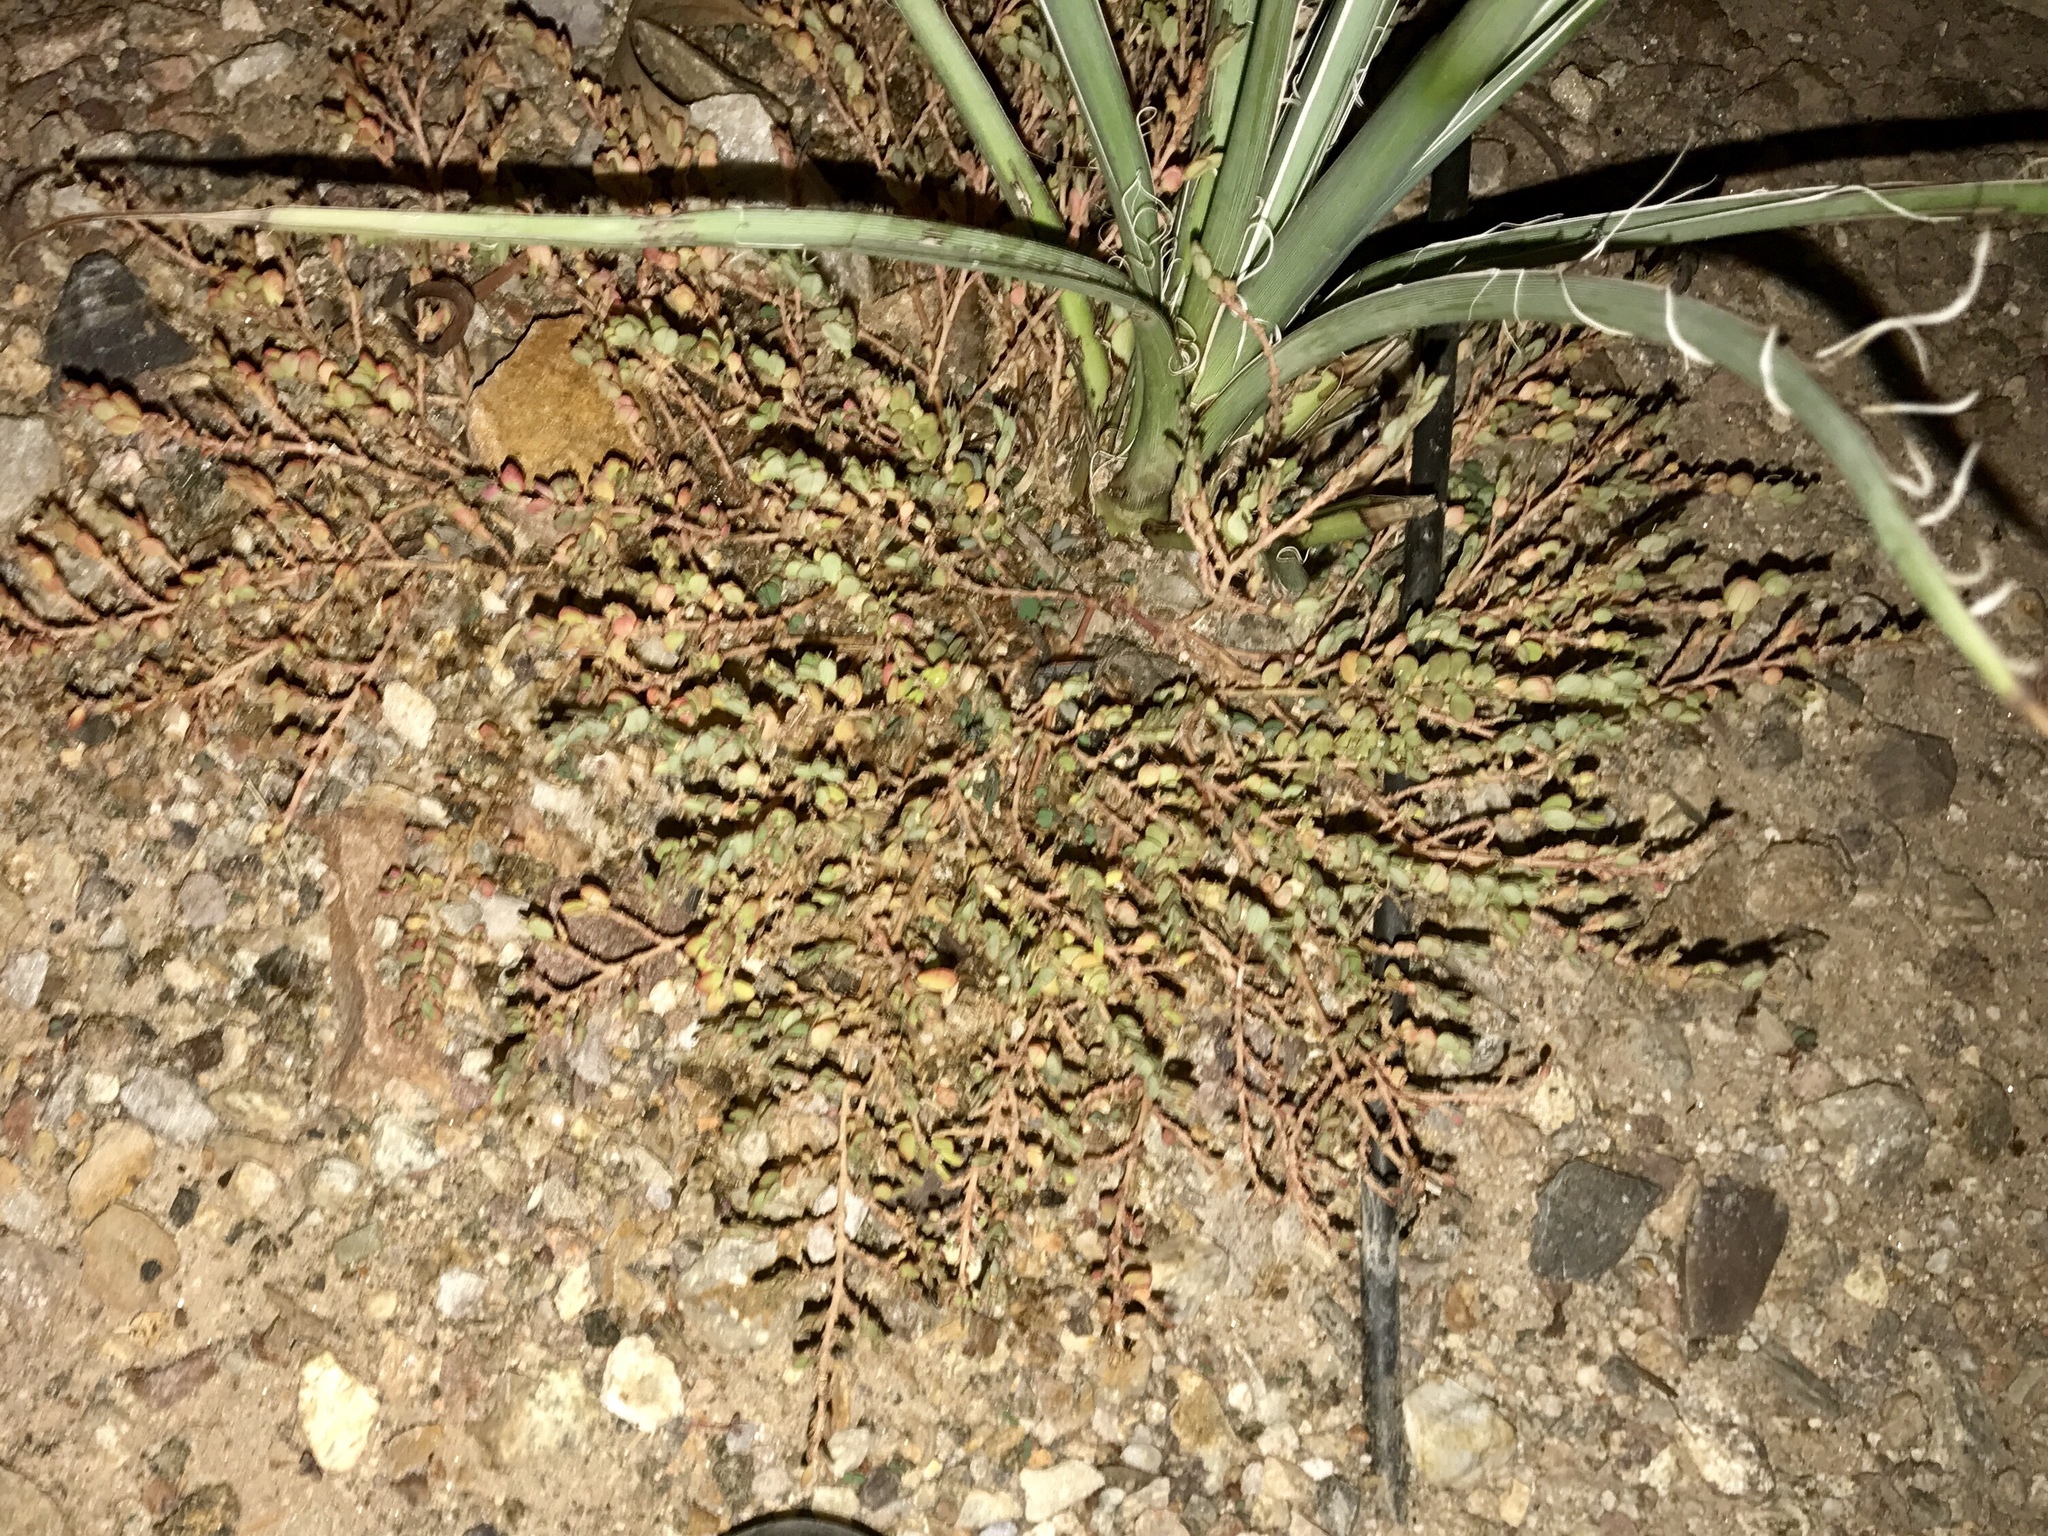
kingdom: Plantae
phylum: Tracheophyta
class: Magnoliopsida
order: Malpighiales
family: Euphorbiaceae
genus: Euphorbia
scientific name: Euphorbia prostrata
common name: Prostrate sandmat
